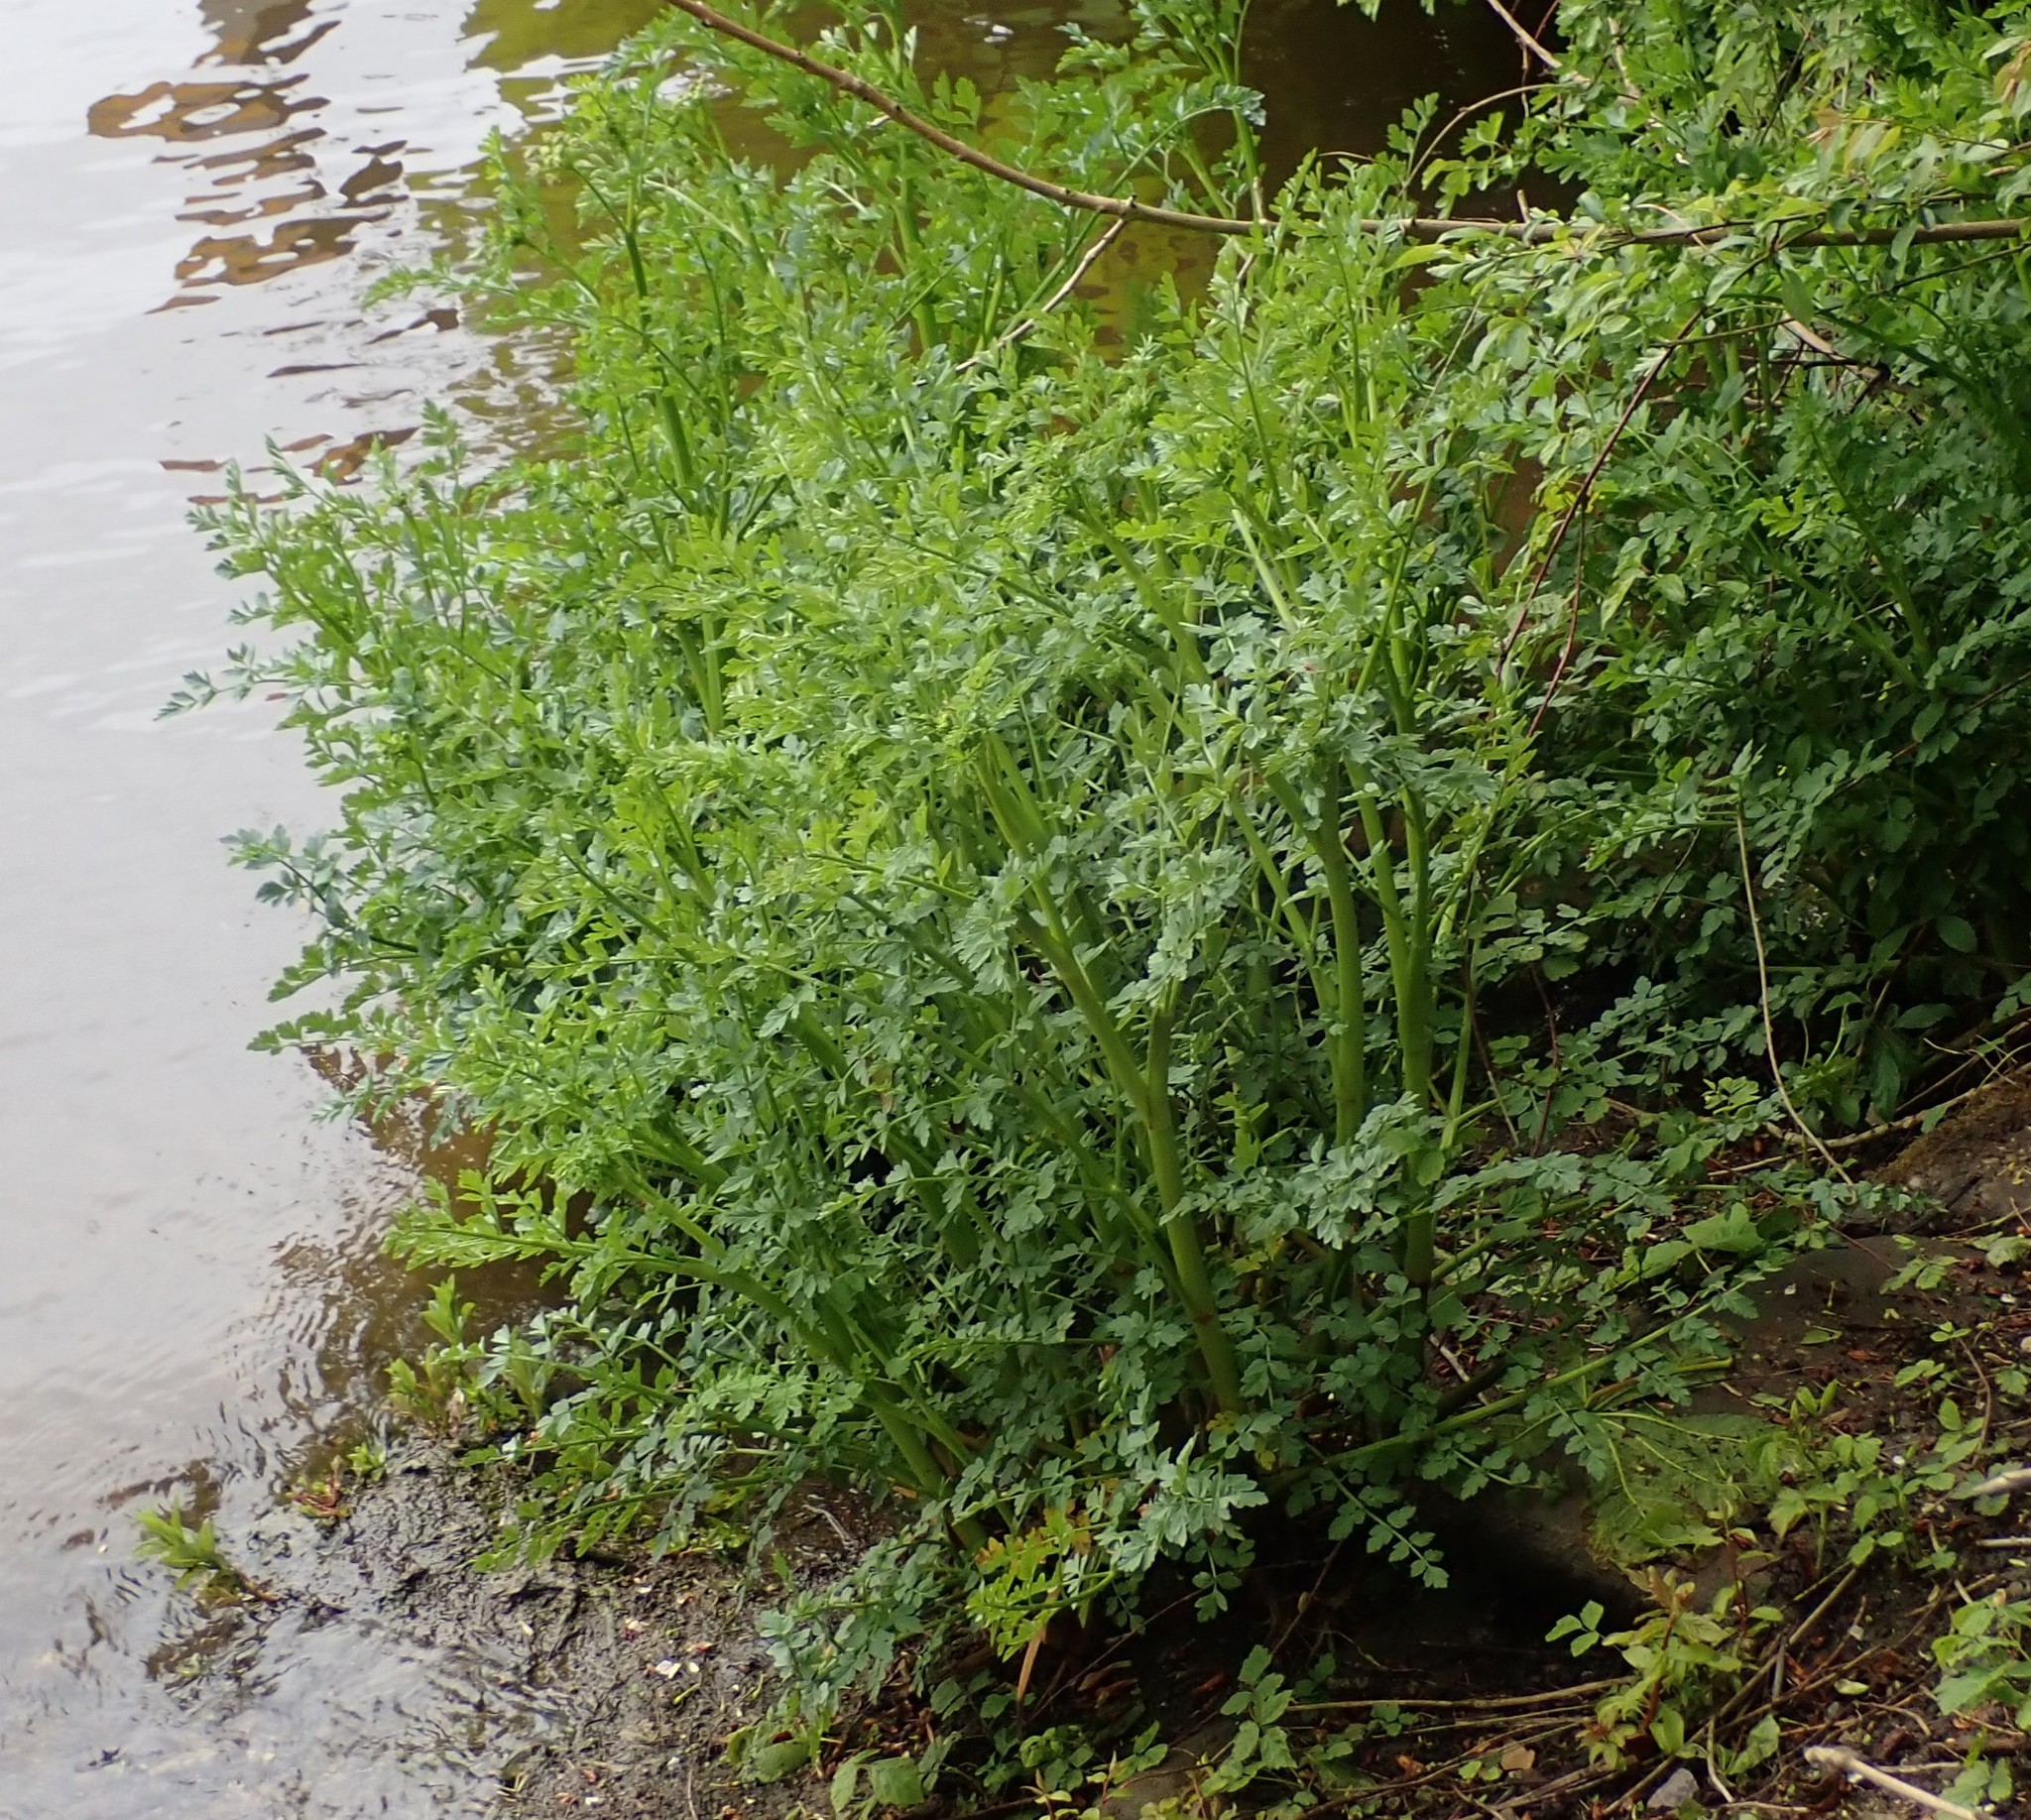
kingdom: Plantae
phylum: Tracheophyta
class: Magnoliopsida
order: Apiales
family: Apiaceae
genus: Oenanthe
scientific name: Oenanthe crocata
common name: Hemlock water-dropwort
